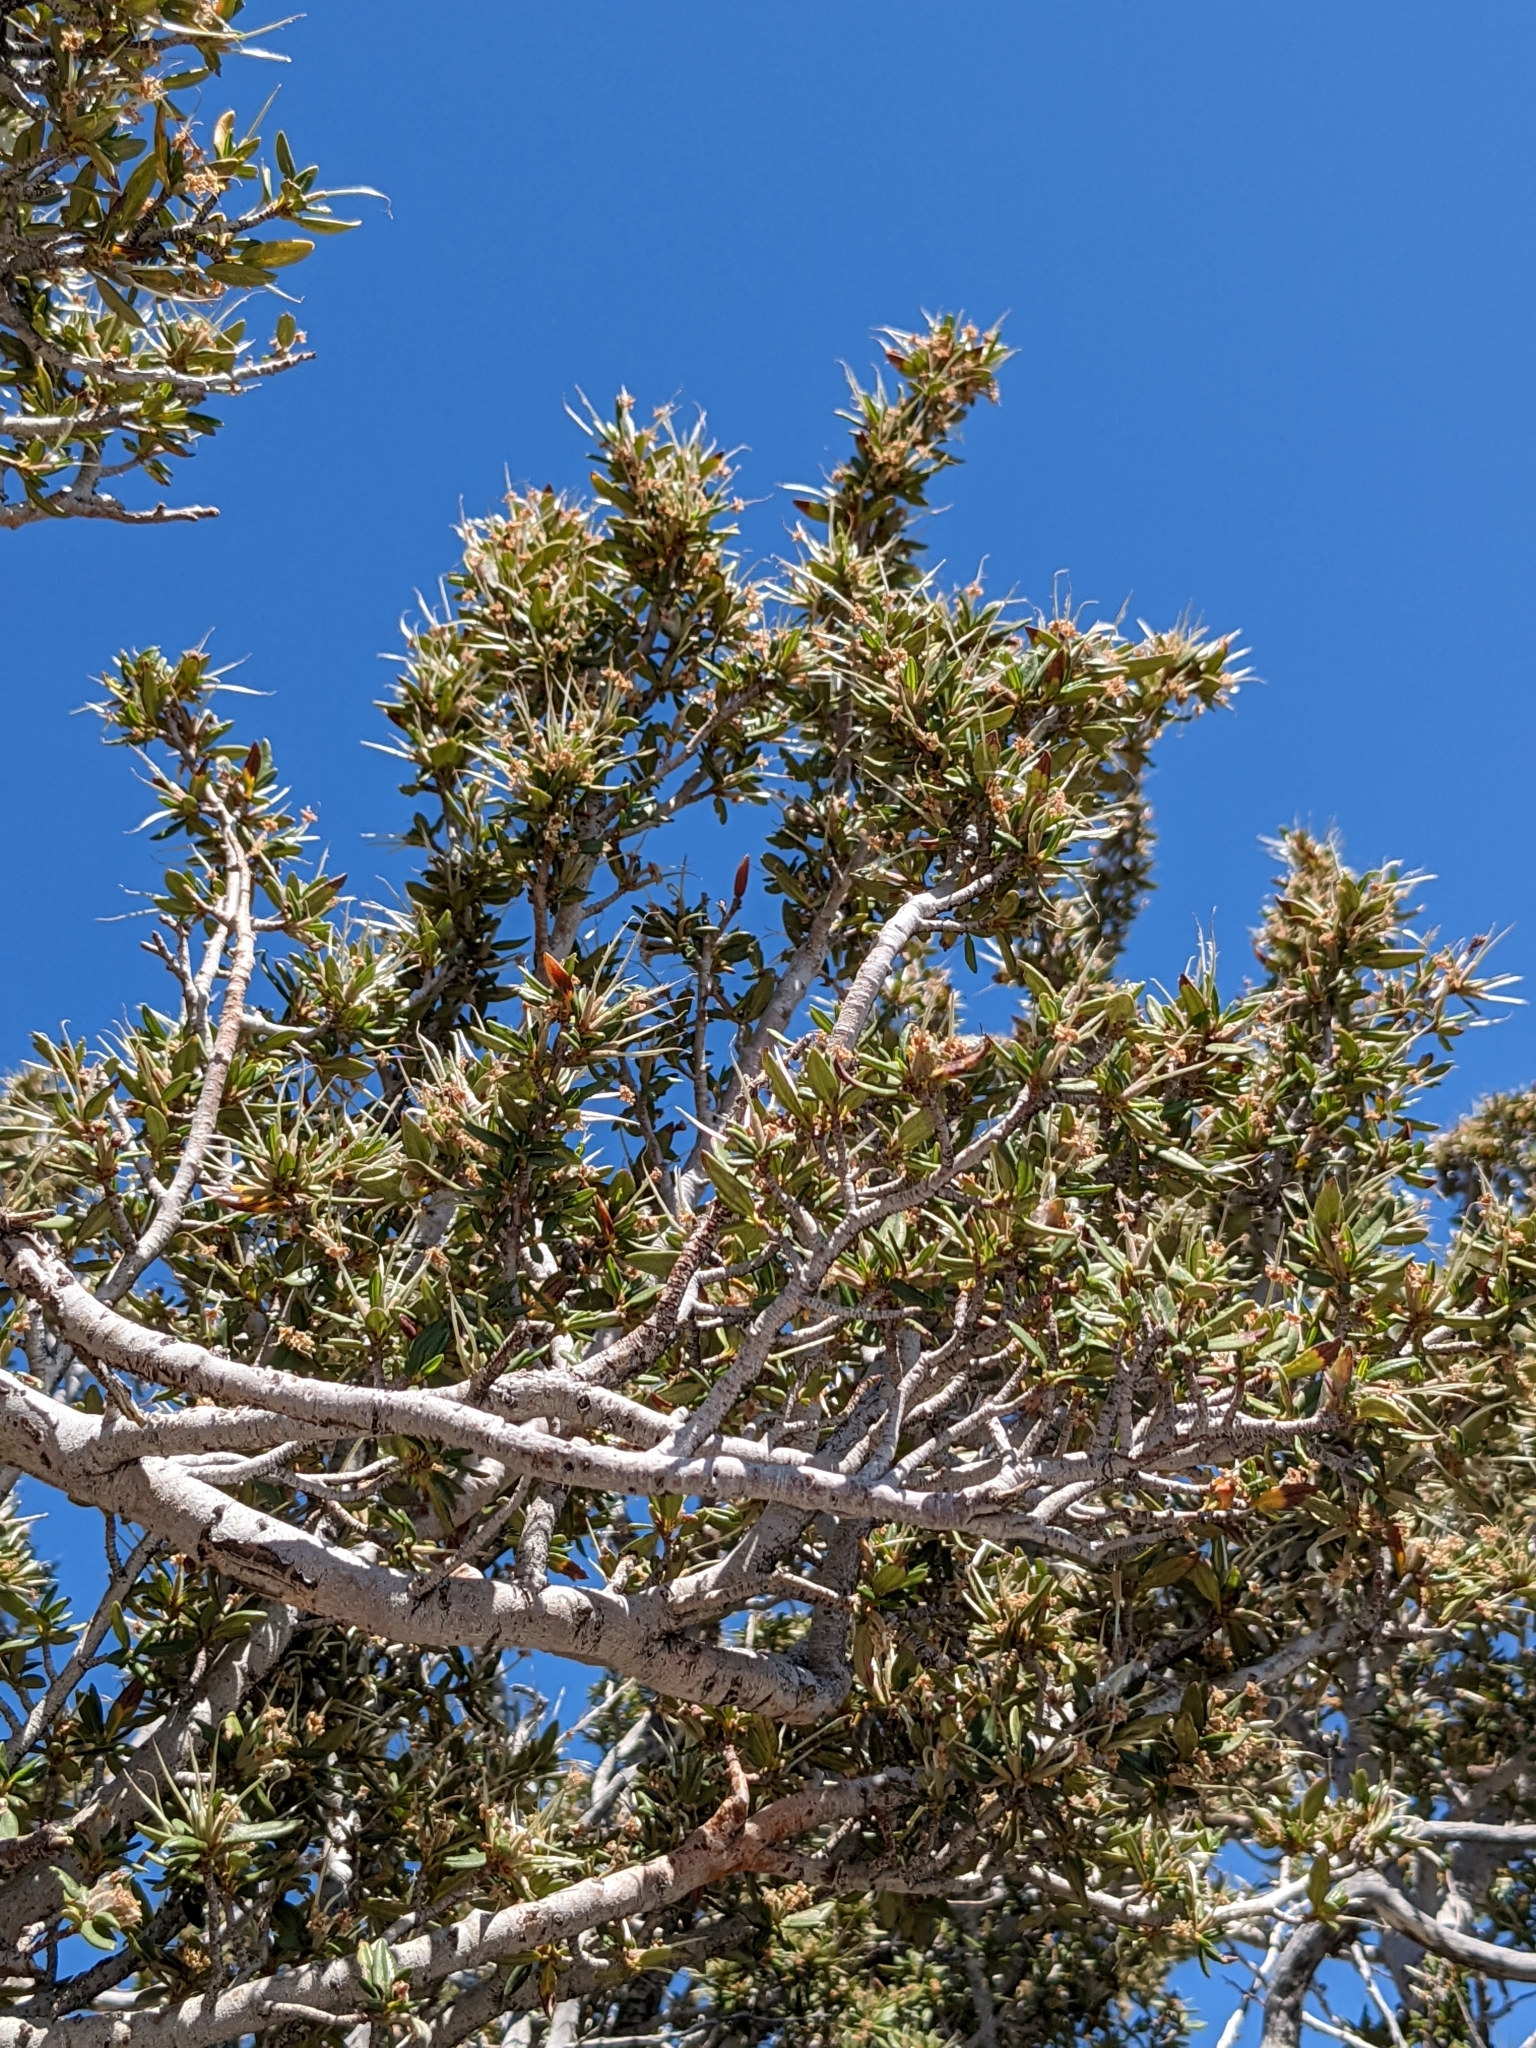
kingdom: Plantae
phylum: Tracheophyta
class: Magnoliopsida
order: Rosales
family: Rosaceae
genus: Cercocarpus
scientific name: Cercocarpus ledifolius
